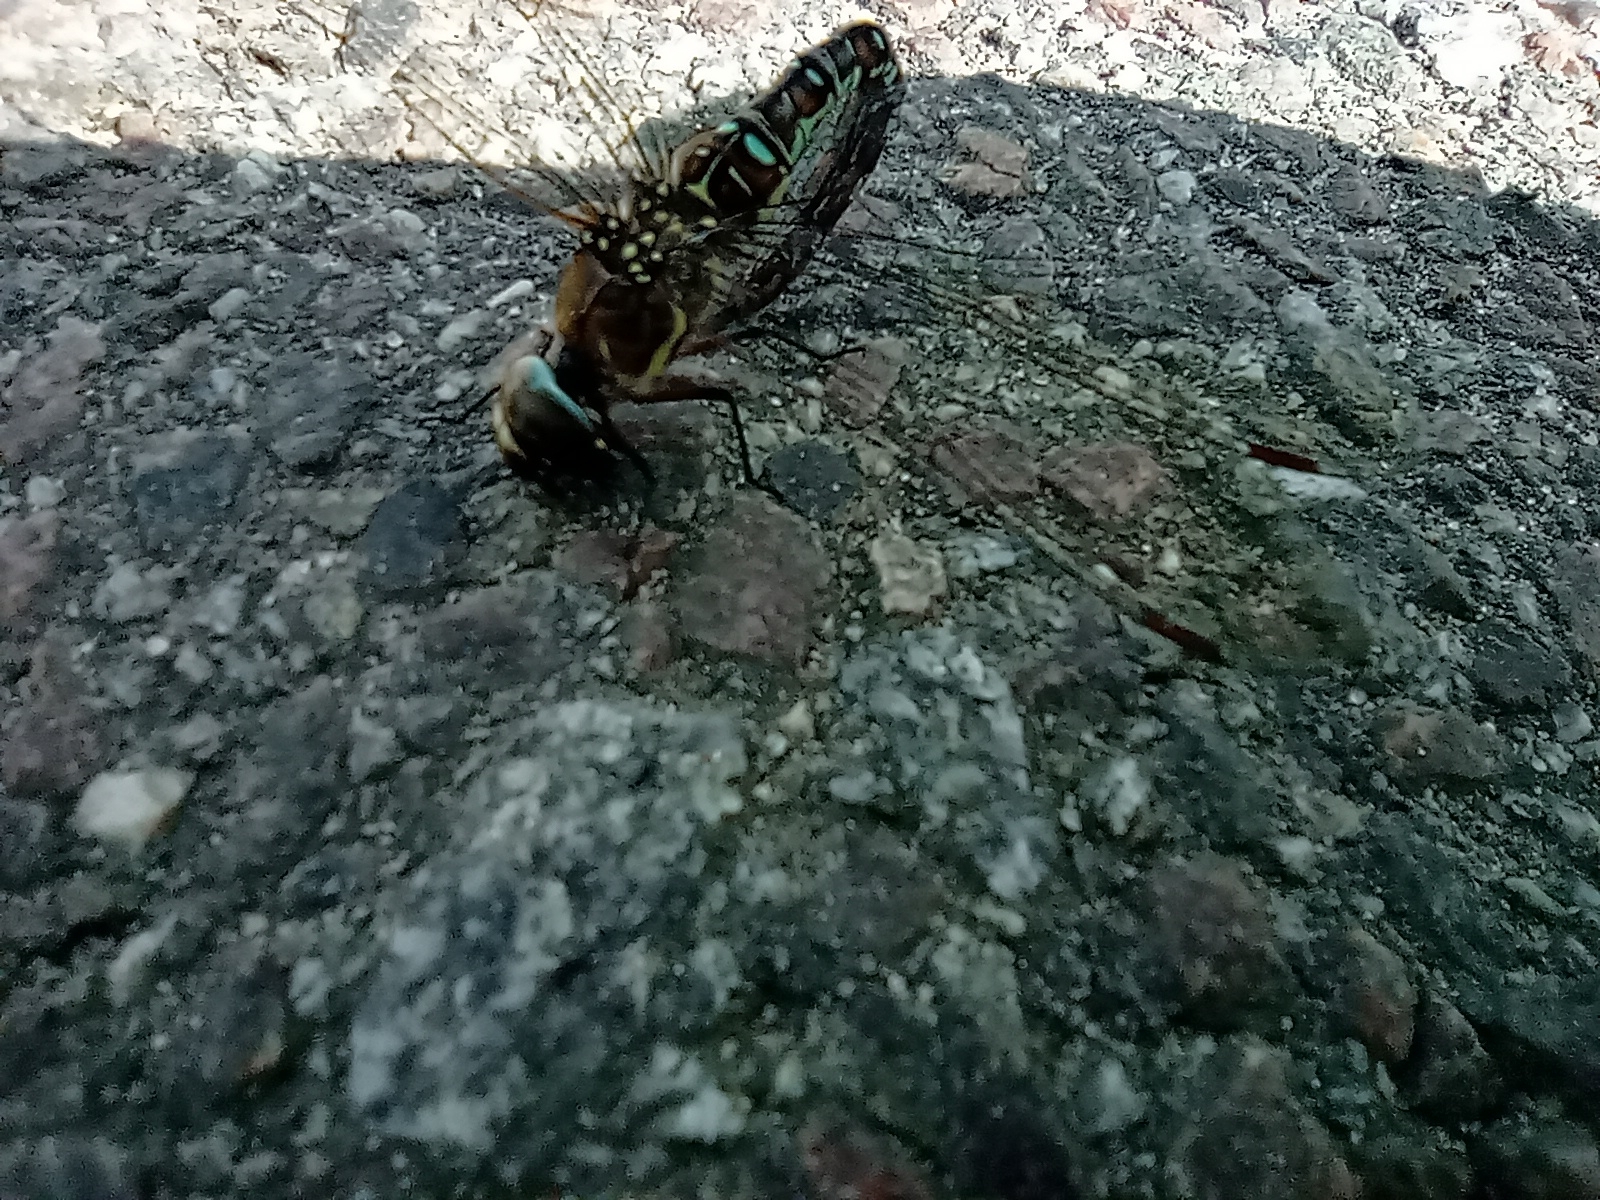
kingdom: Animalia
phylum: Arthropoda
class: Insecta
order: Odonata
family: Aeshnidae
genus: Aeshna
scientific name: Aeshna mixta
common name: Migrant hawker
